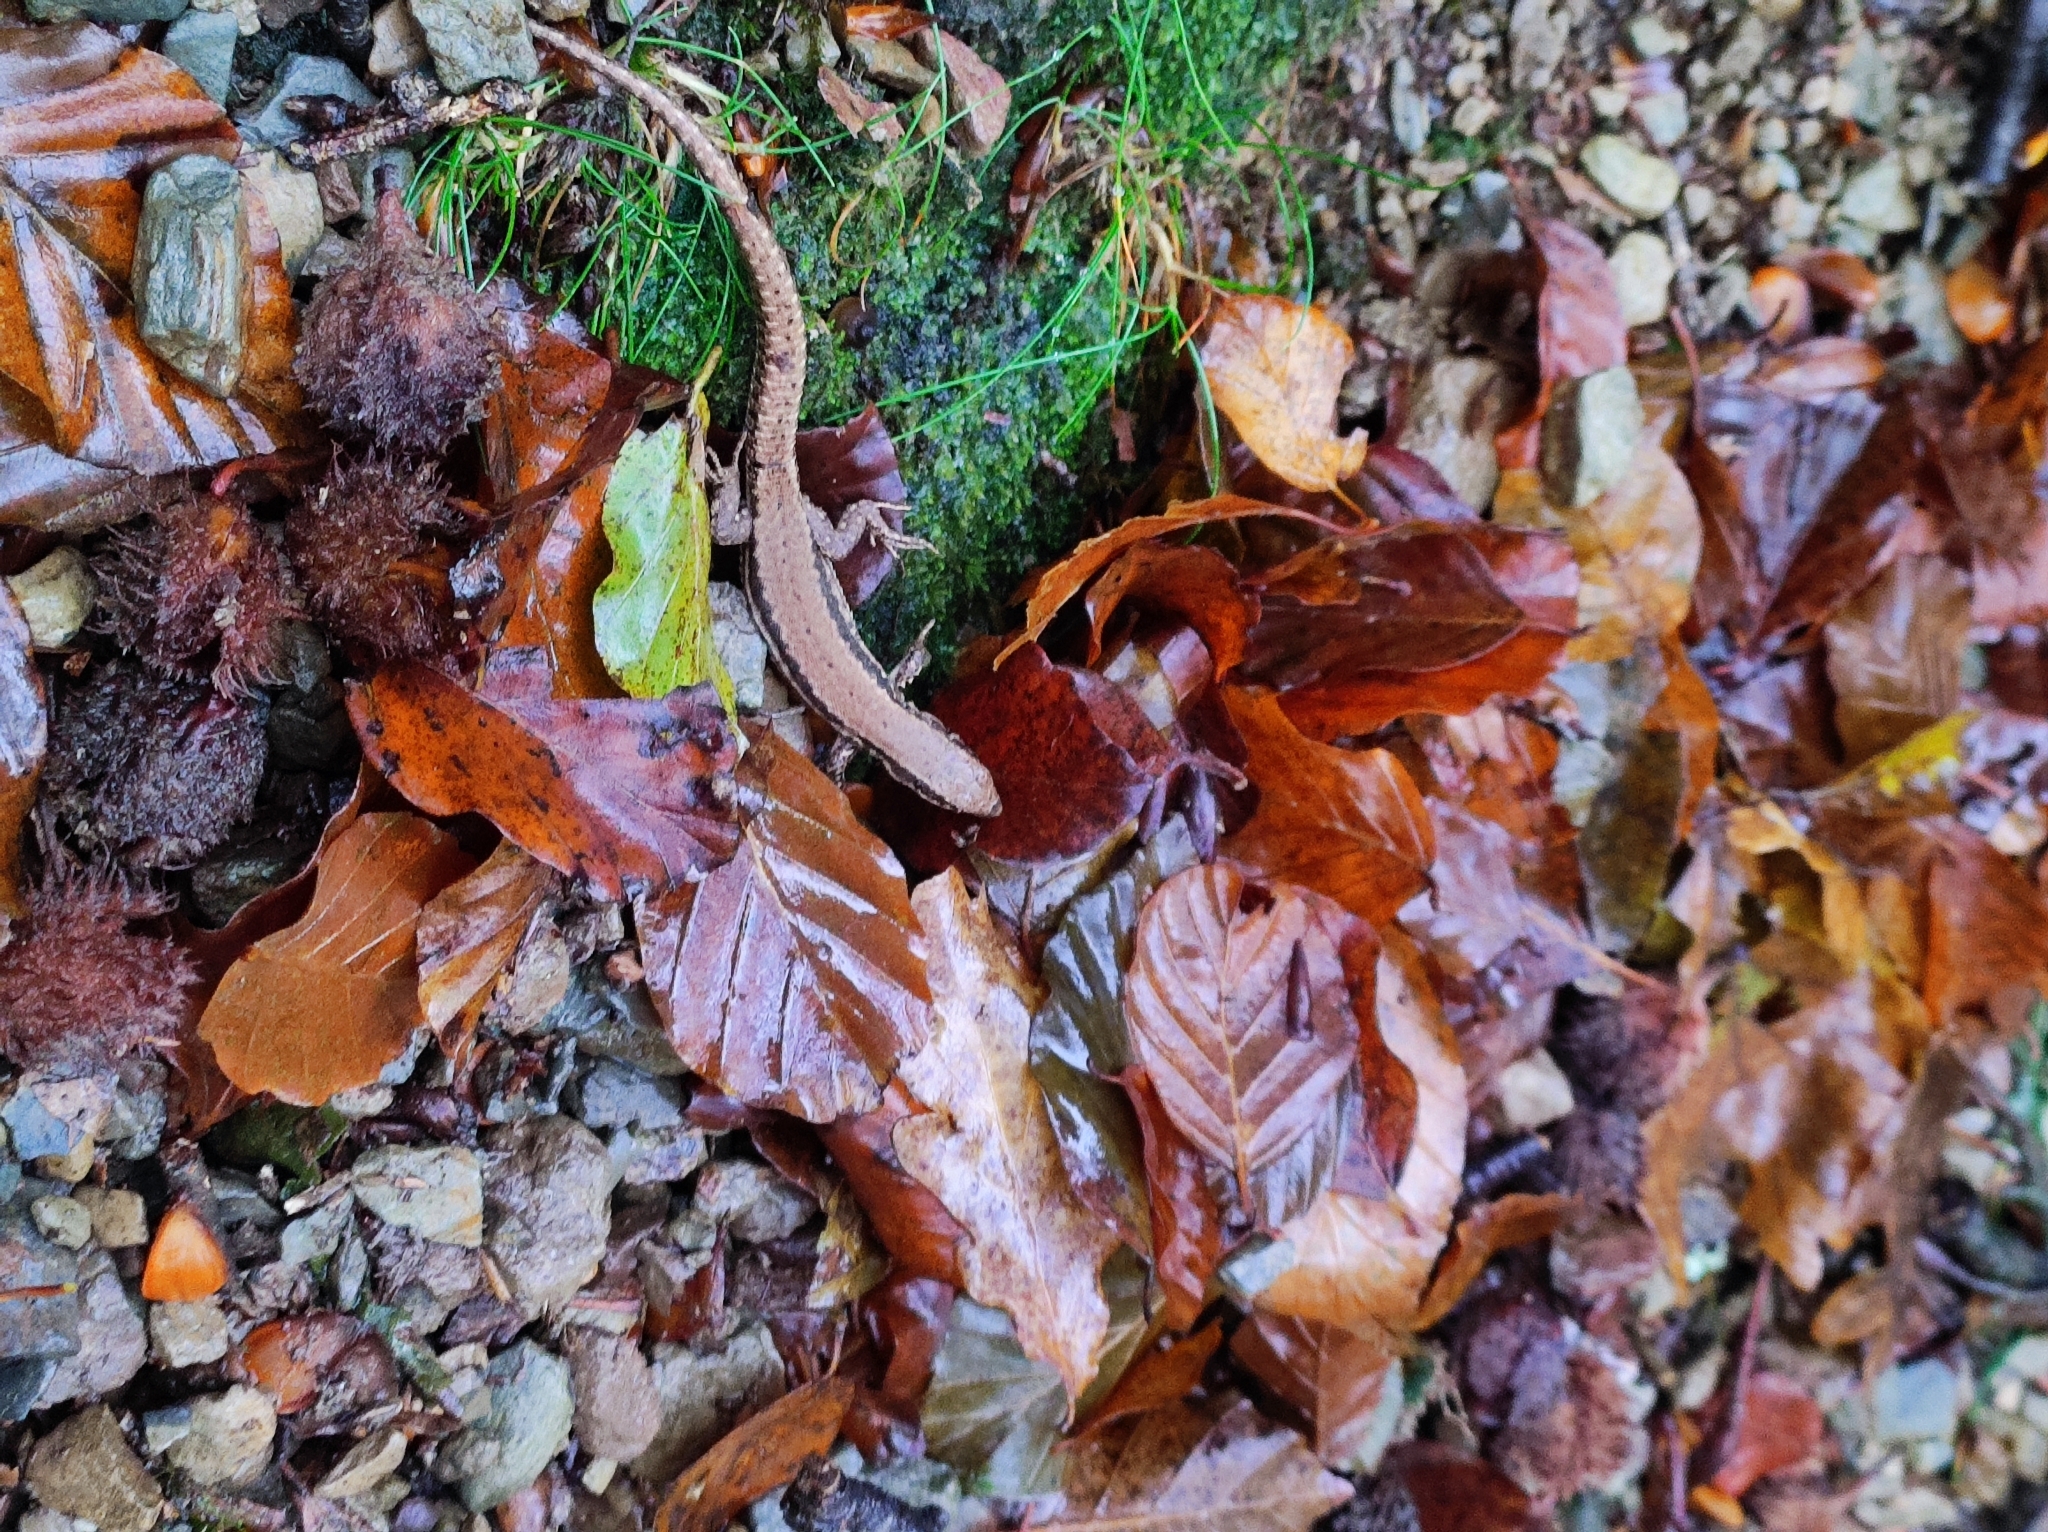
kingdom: Animalia
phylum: Chordata
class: Squamata
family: Lacertidae
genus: Podarcis
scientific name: Podarcis muralis
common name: Common wall lizard
